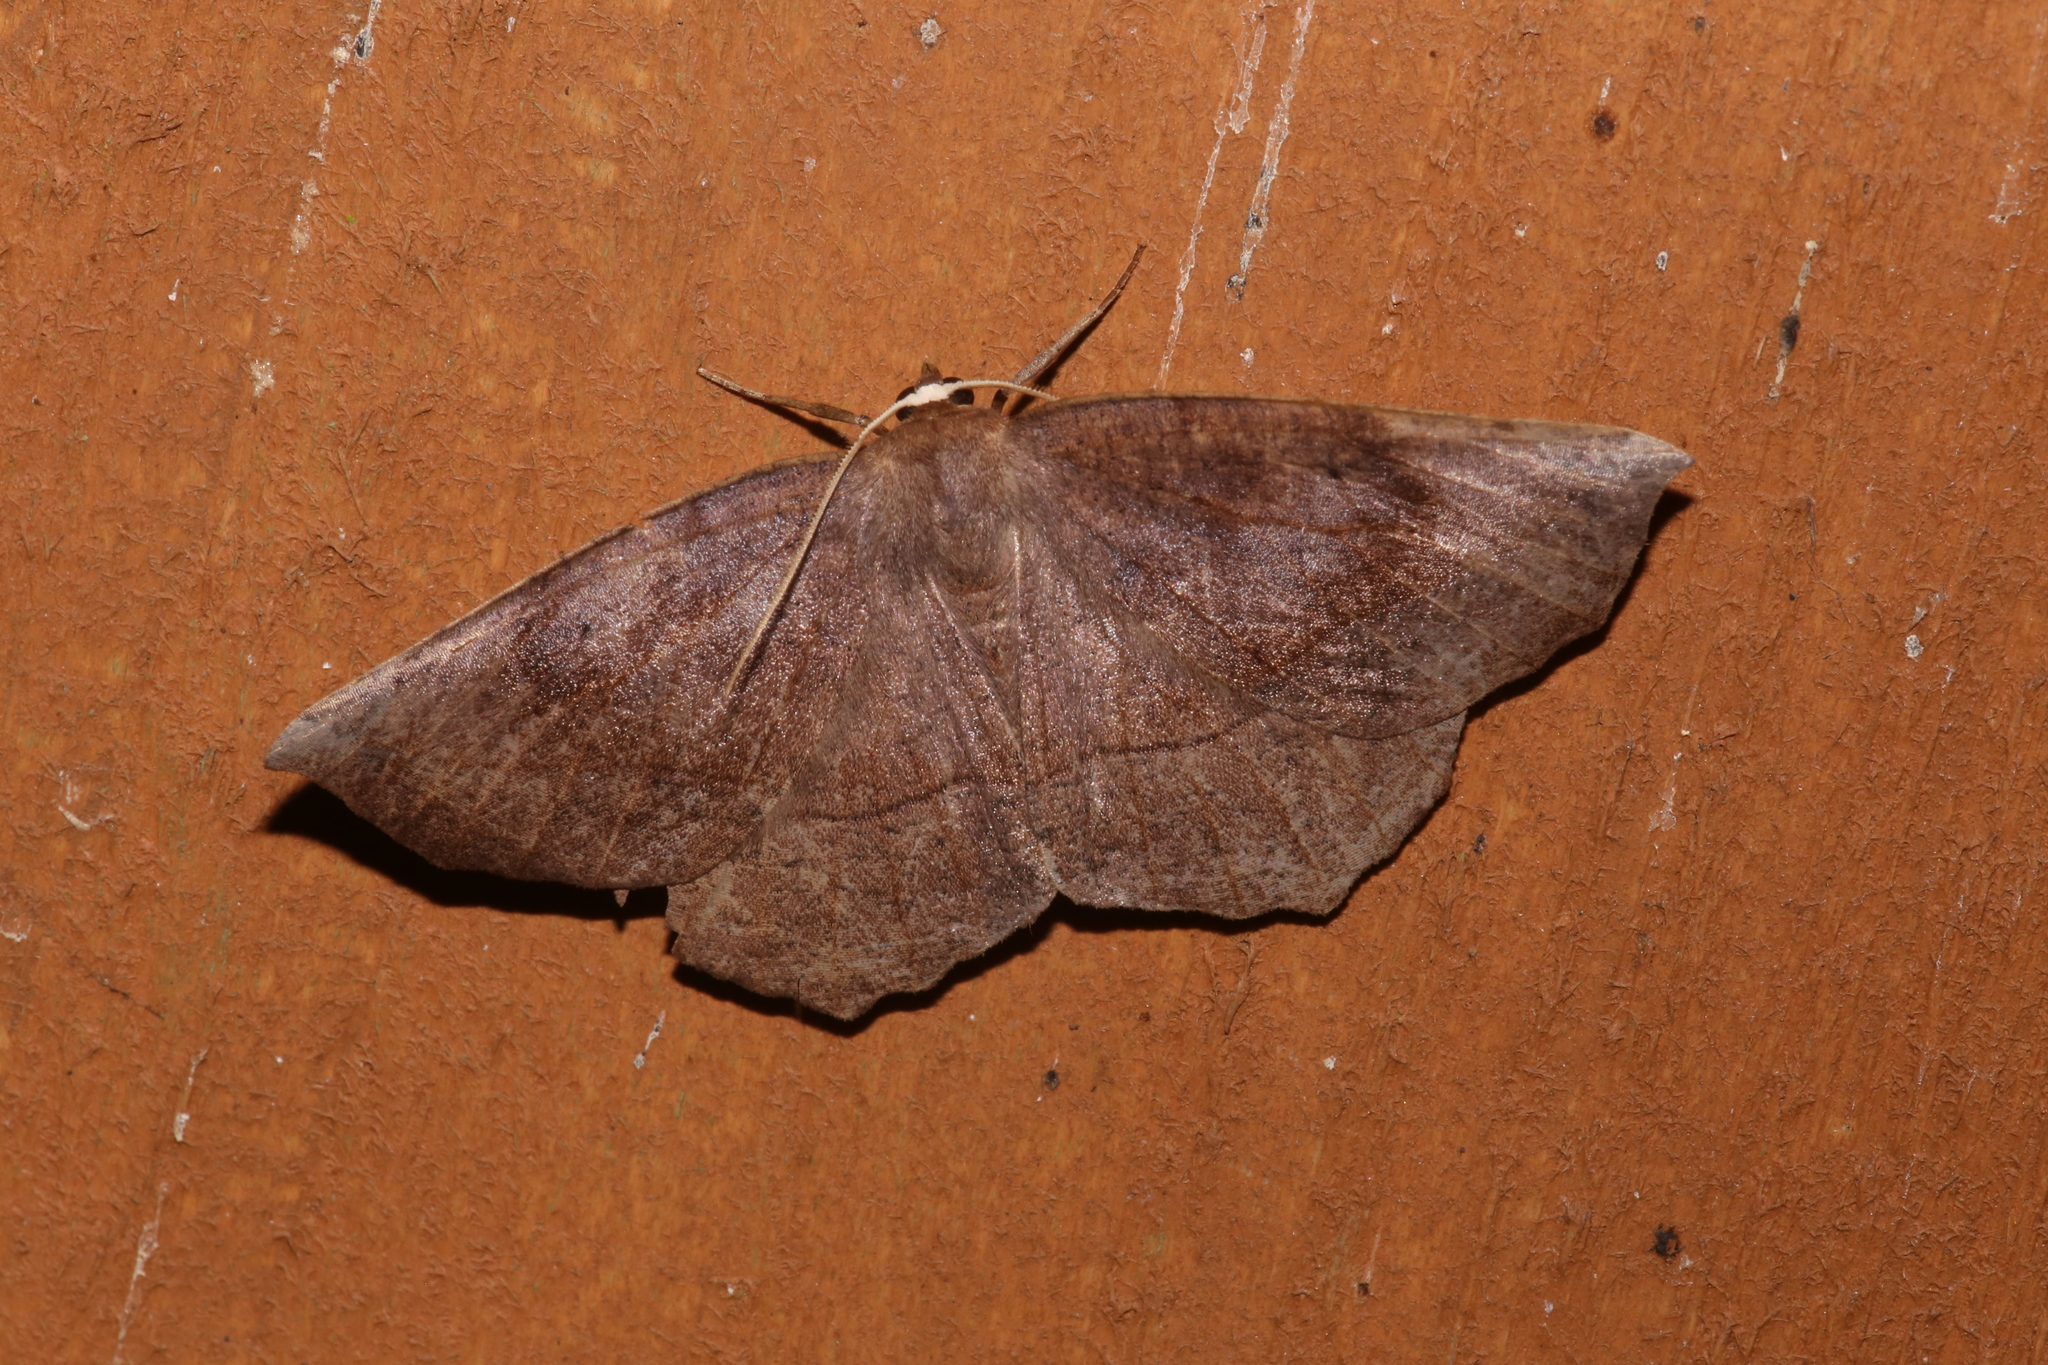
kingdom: Animalia
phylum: Arthropoda
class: Insecta
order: Lepidoptera
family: Geometridae
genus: Eutrapela
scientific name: Eutrapela clemataria
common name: Curved-toothed geometer
